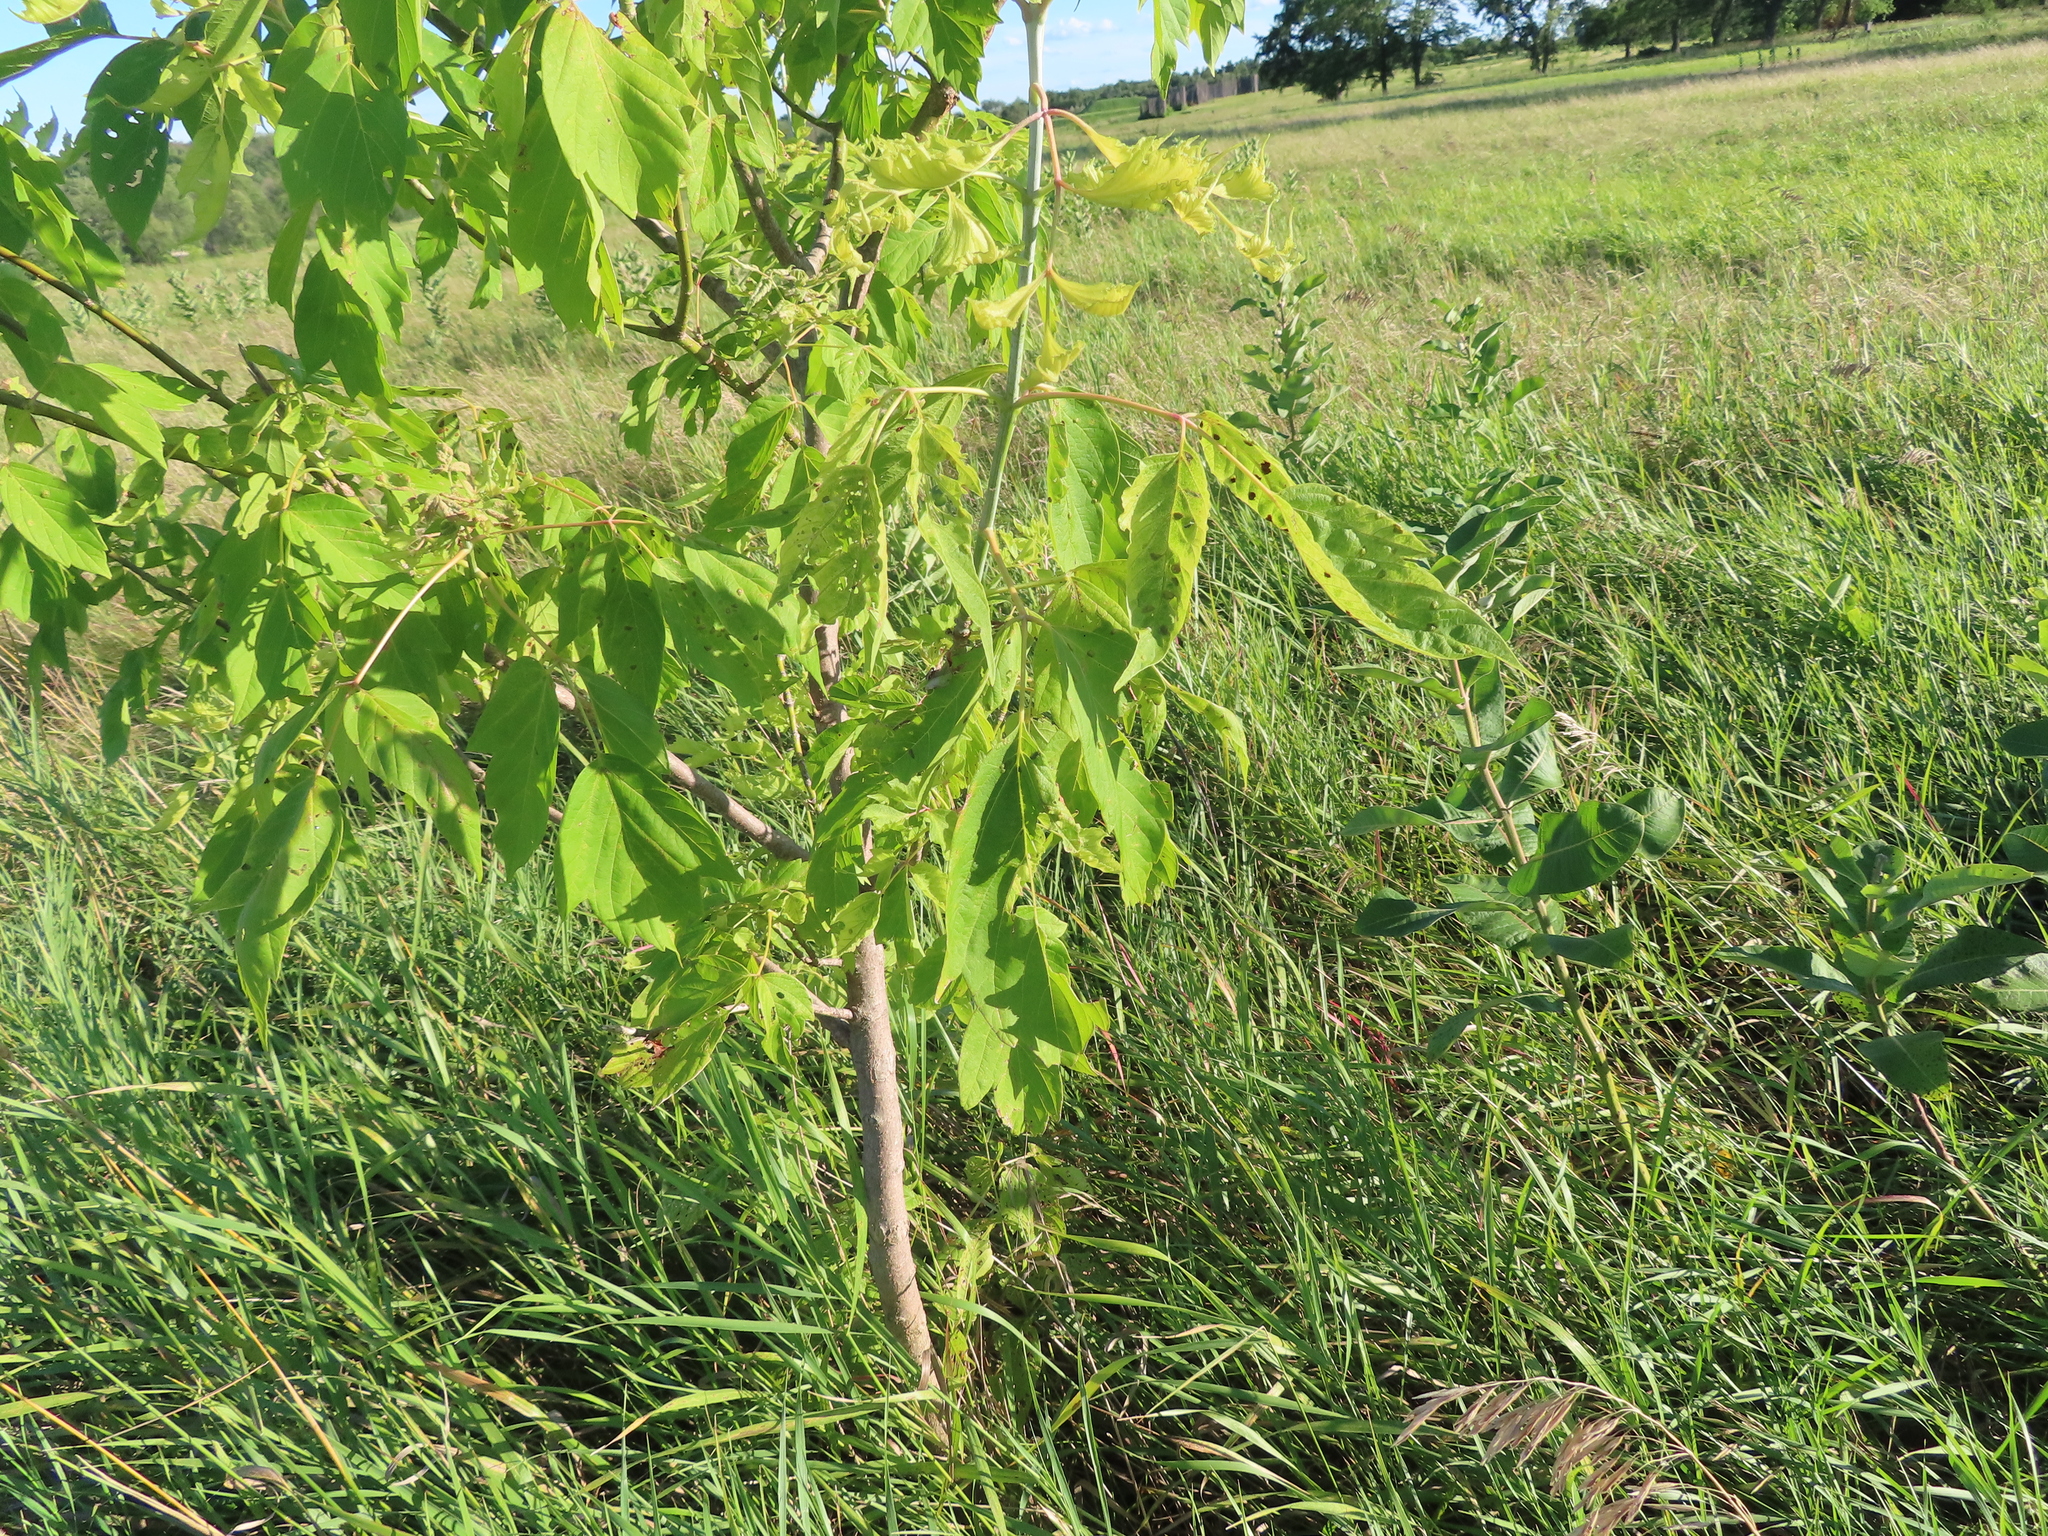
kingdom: Plantae
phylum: Tracheophyta
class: Magnoliopsida
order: Sapindales
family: Sapindaceae
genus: Acer
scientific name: Acer negundo
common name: Ashleaf maple
